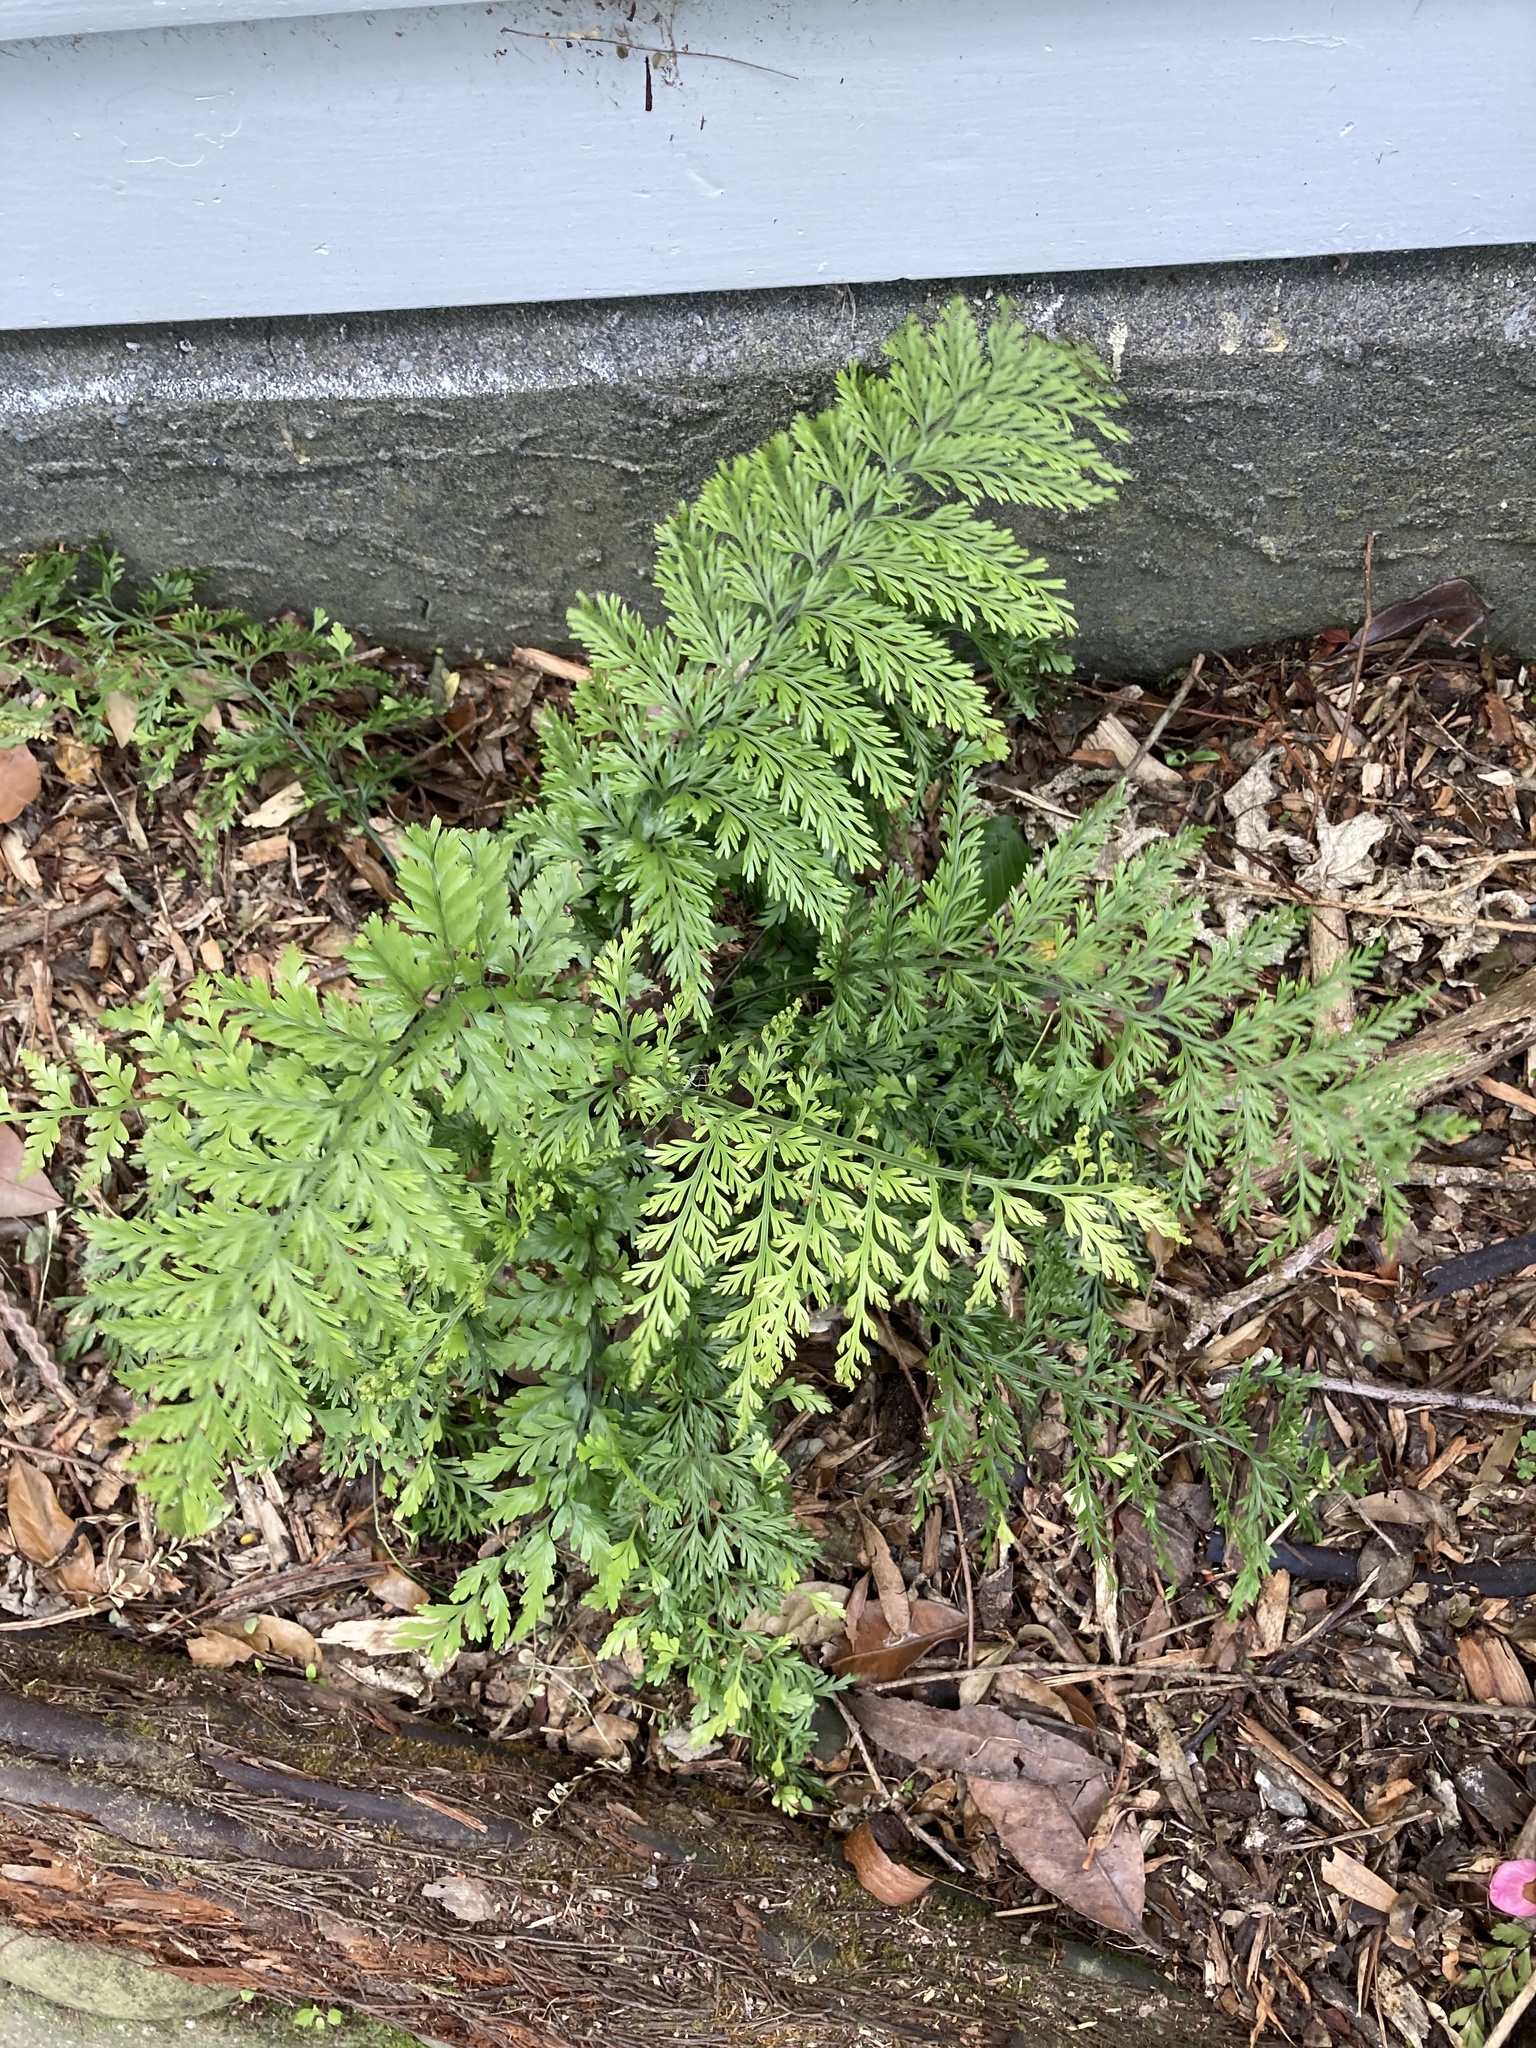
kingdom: Plantae
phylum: Tracheophyta
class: Polypodiopsida
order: Polypodiales
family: Aspleniaceae
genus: Asplenium
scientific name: Asplenium lucrosum
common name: False hen-and-chickens fern
